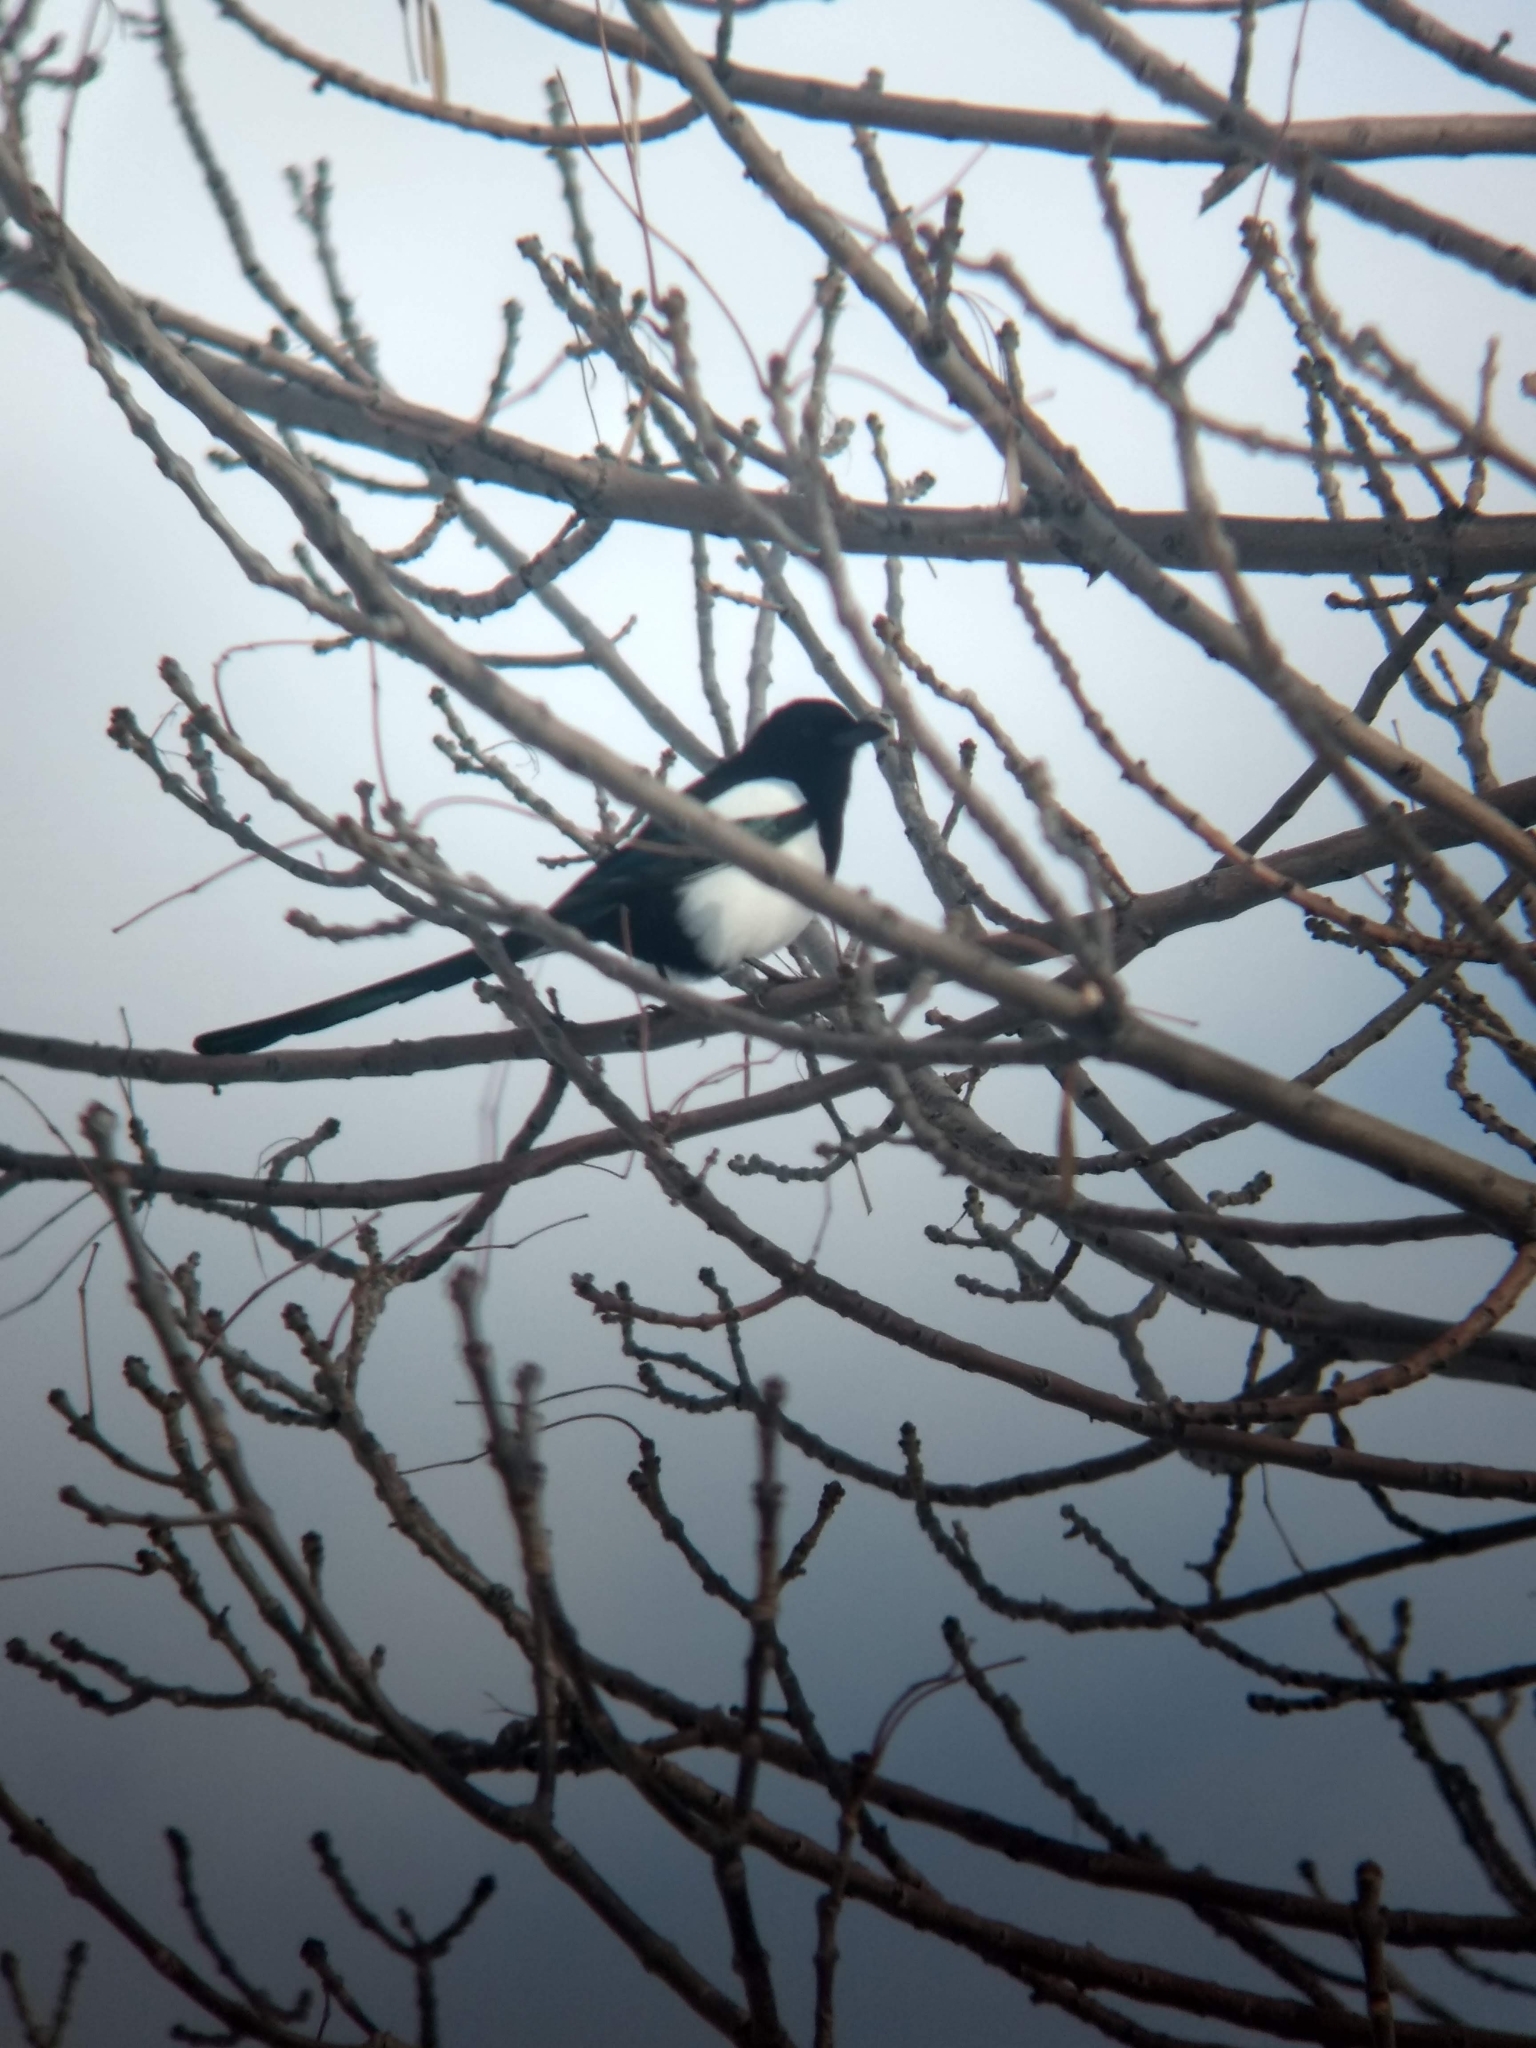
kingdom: Animalia
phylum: Chordata
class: Aves
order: Passeriformes
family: Corvidae
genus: Pica
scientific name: Pica hudsonia
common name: Black-billed magpie
